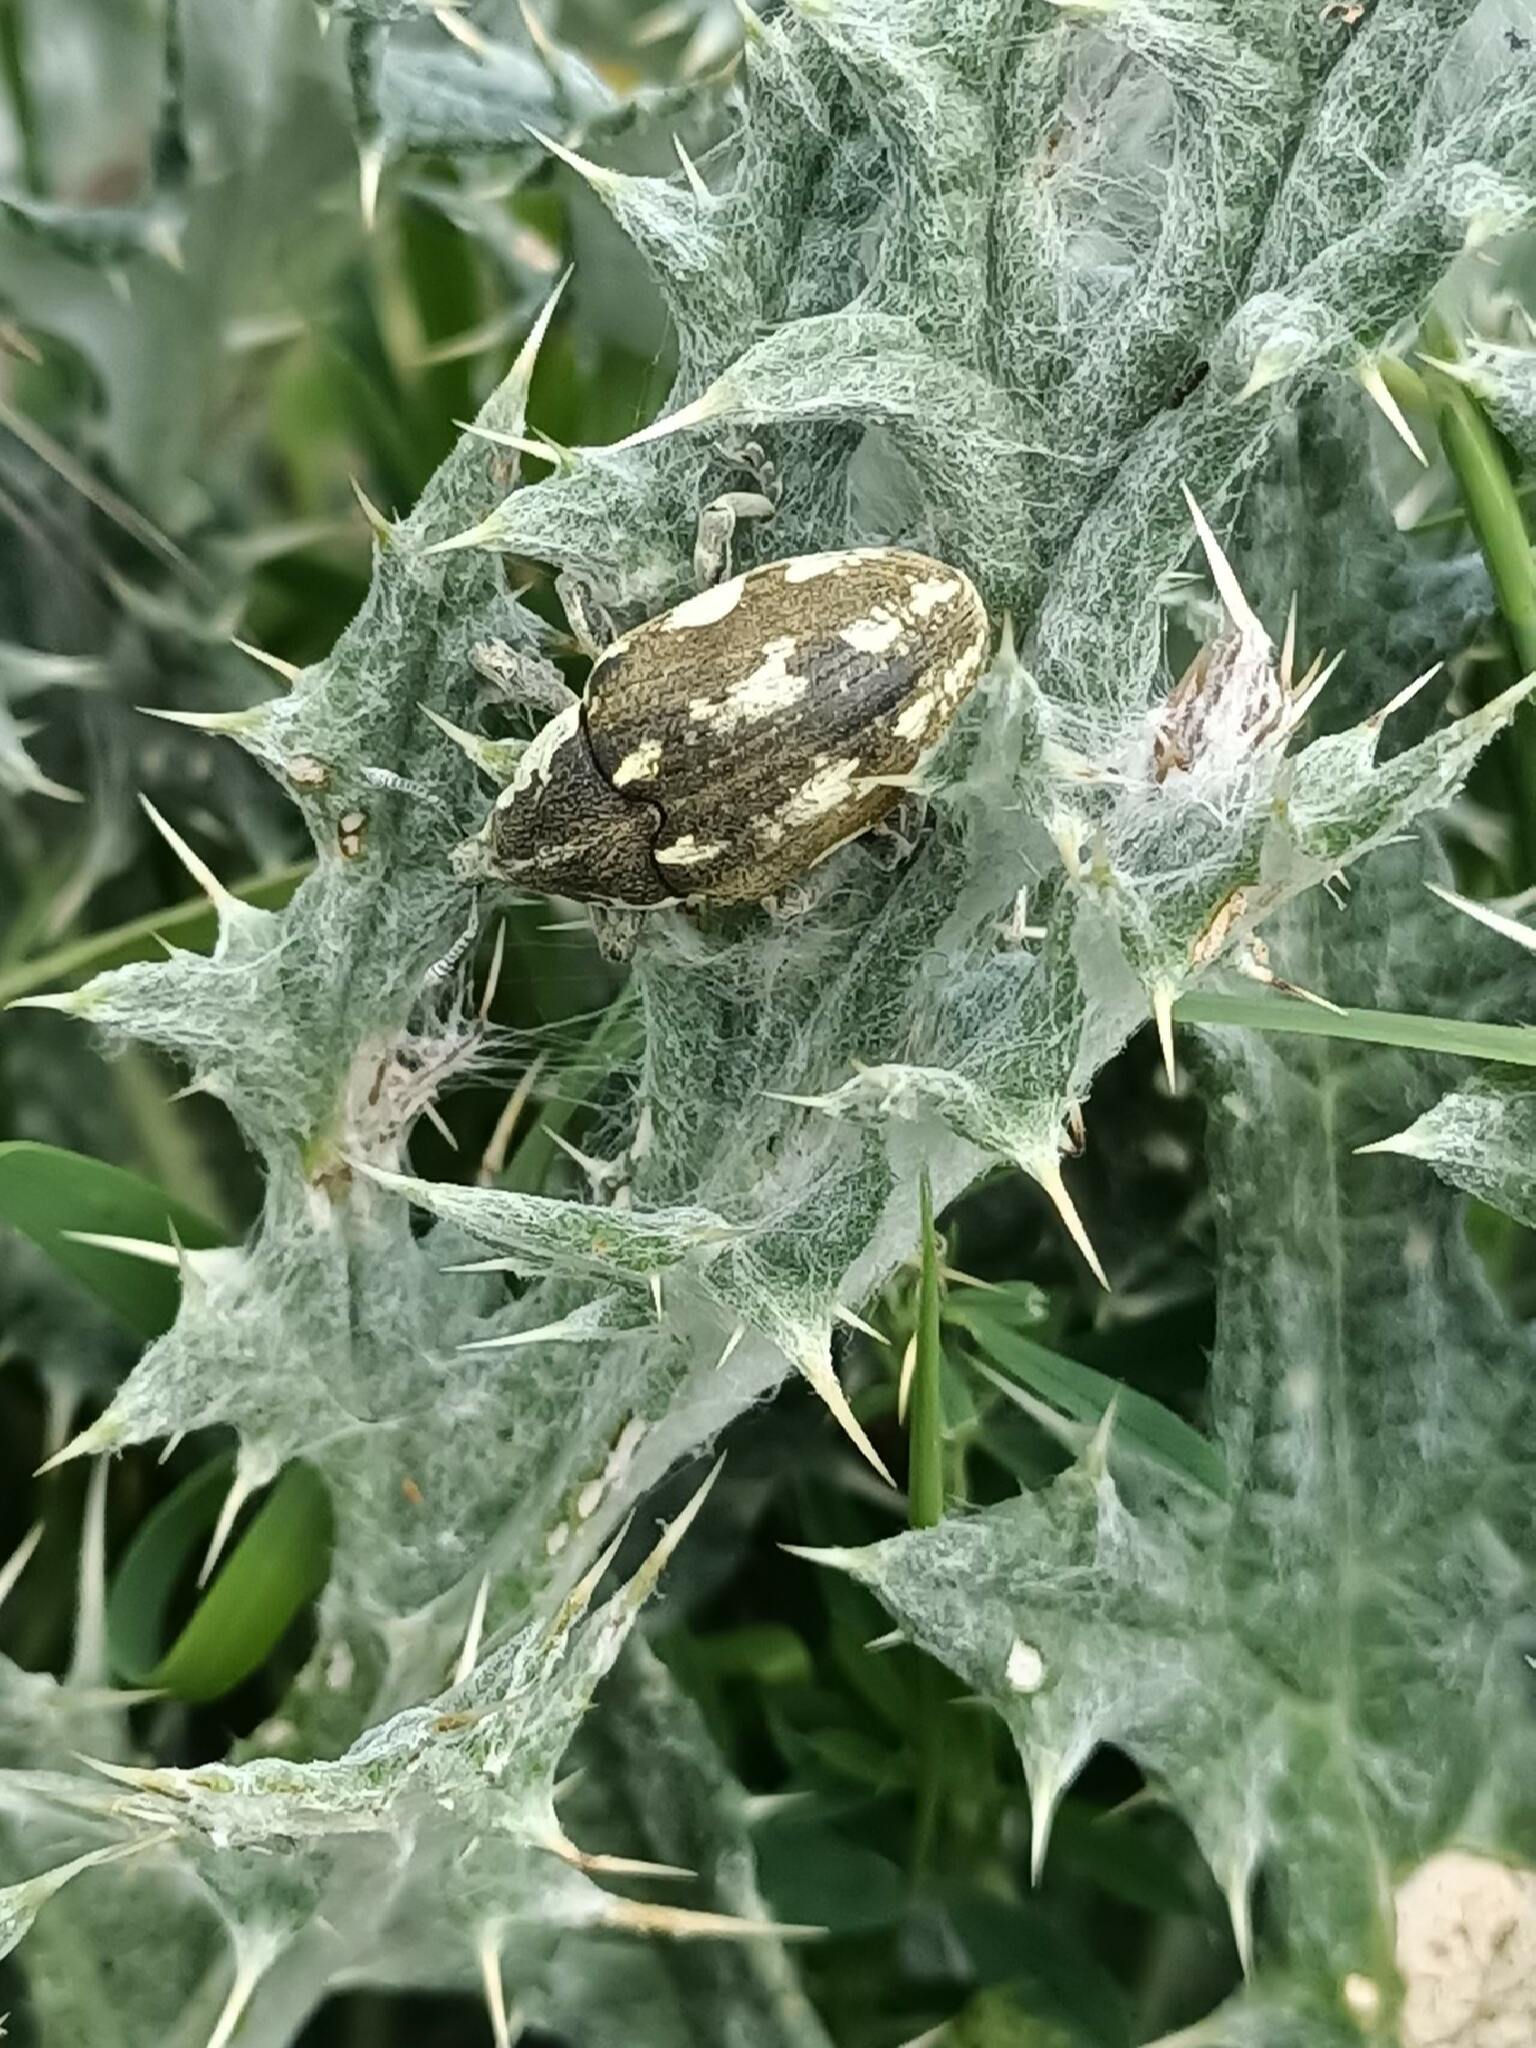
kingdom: Animalia
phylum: Arthropoda
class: Insecta
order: Coleoptera
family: Curculionidae
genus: Larinus
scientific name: Larinus onopordi
